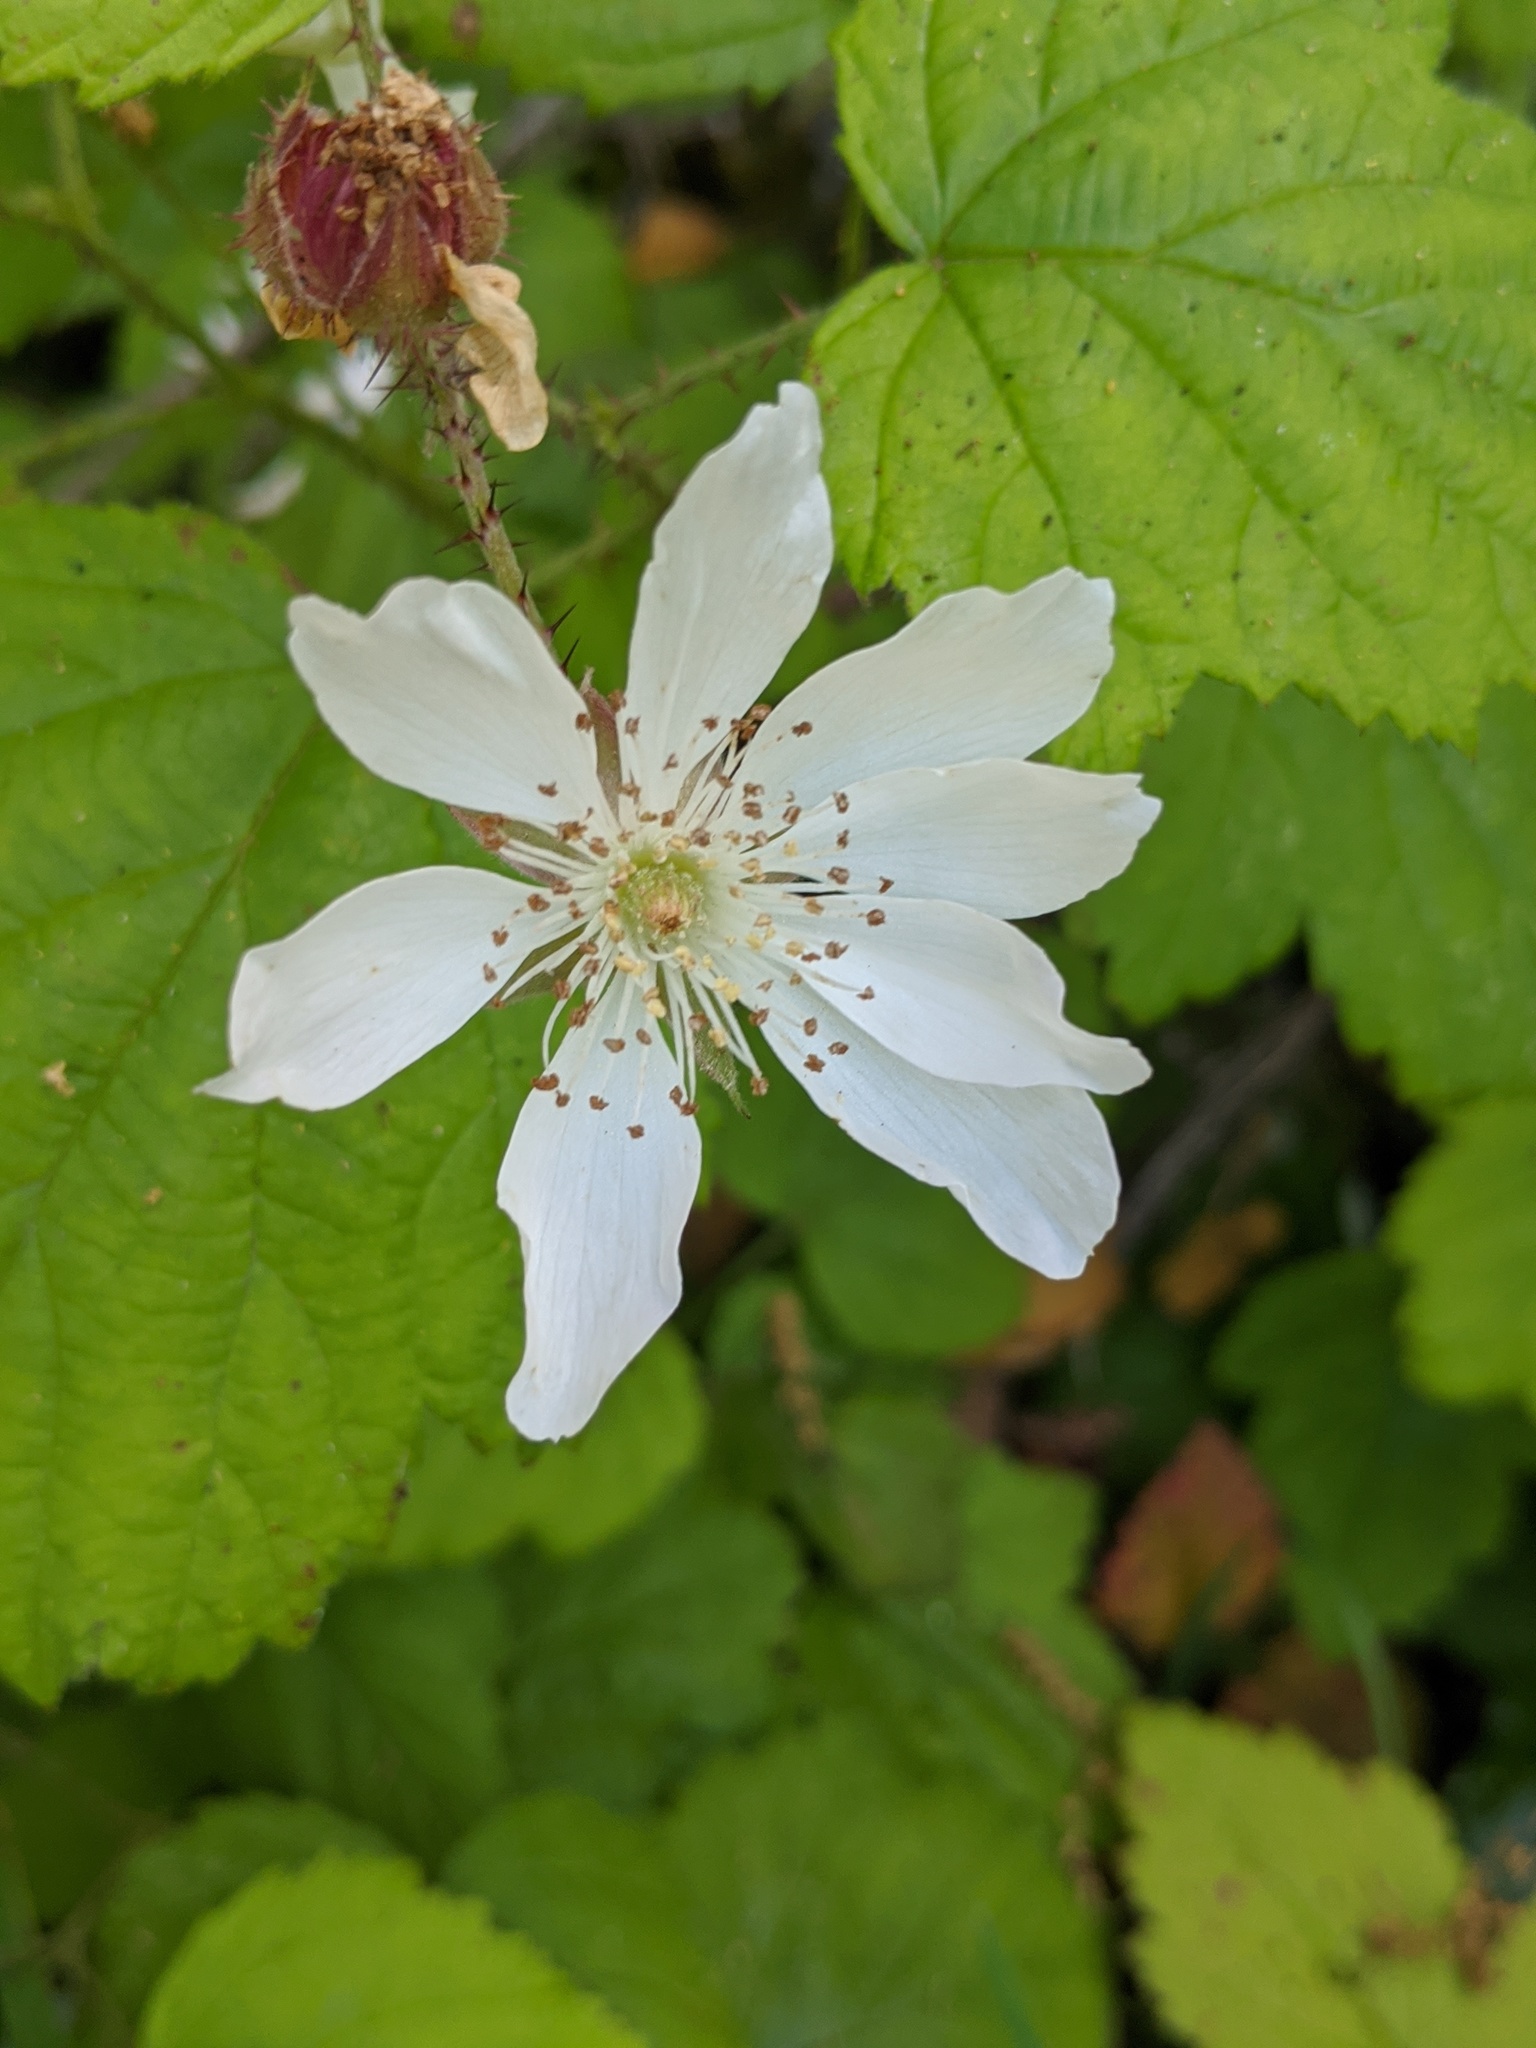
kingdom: Plantae
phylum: Tracheophyta
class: Magnoliopsida
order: Rosales
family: Rosaceae
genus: Rubus
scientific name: Rubus ursinus
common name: Pacific blackberry
